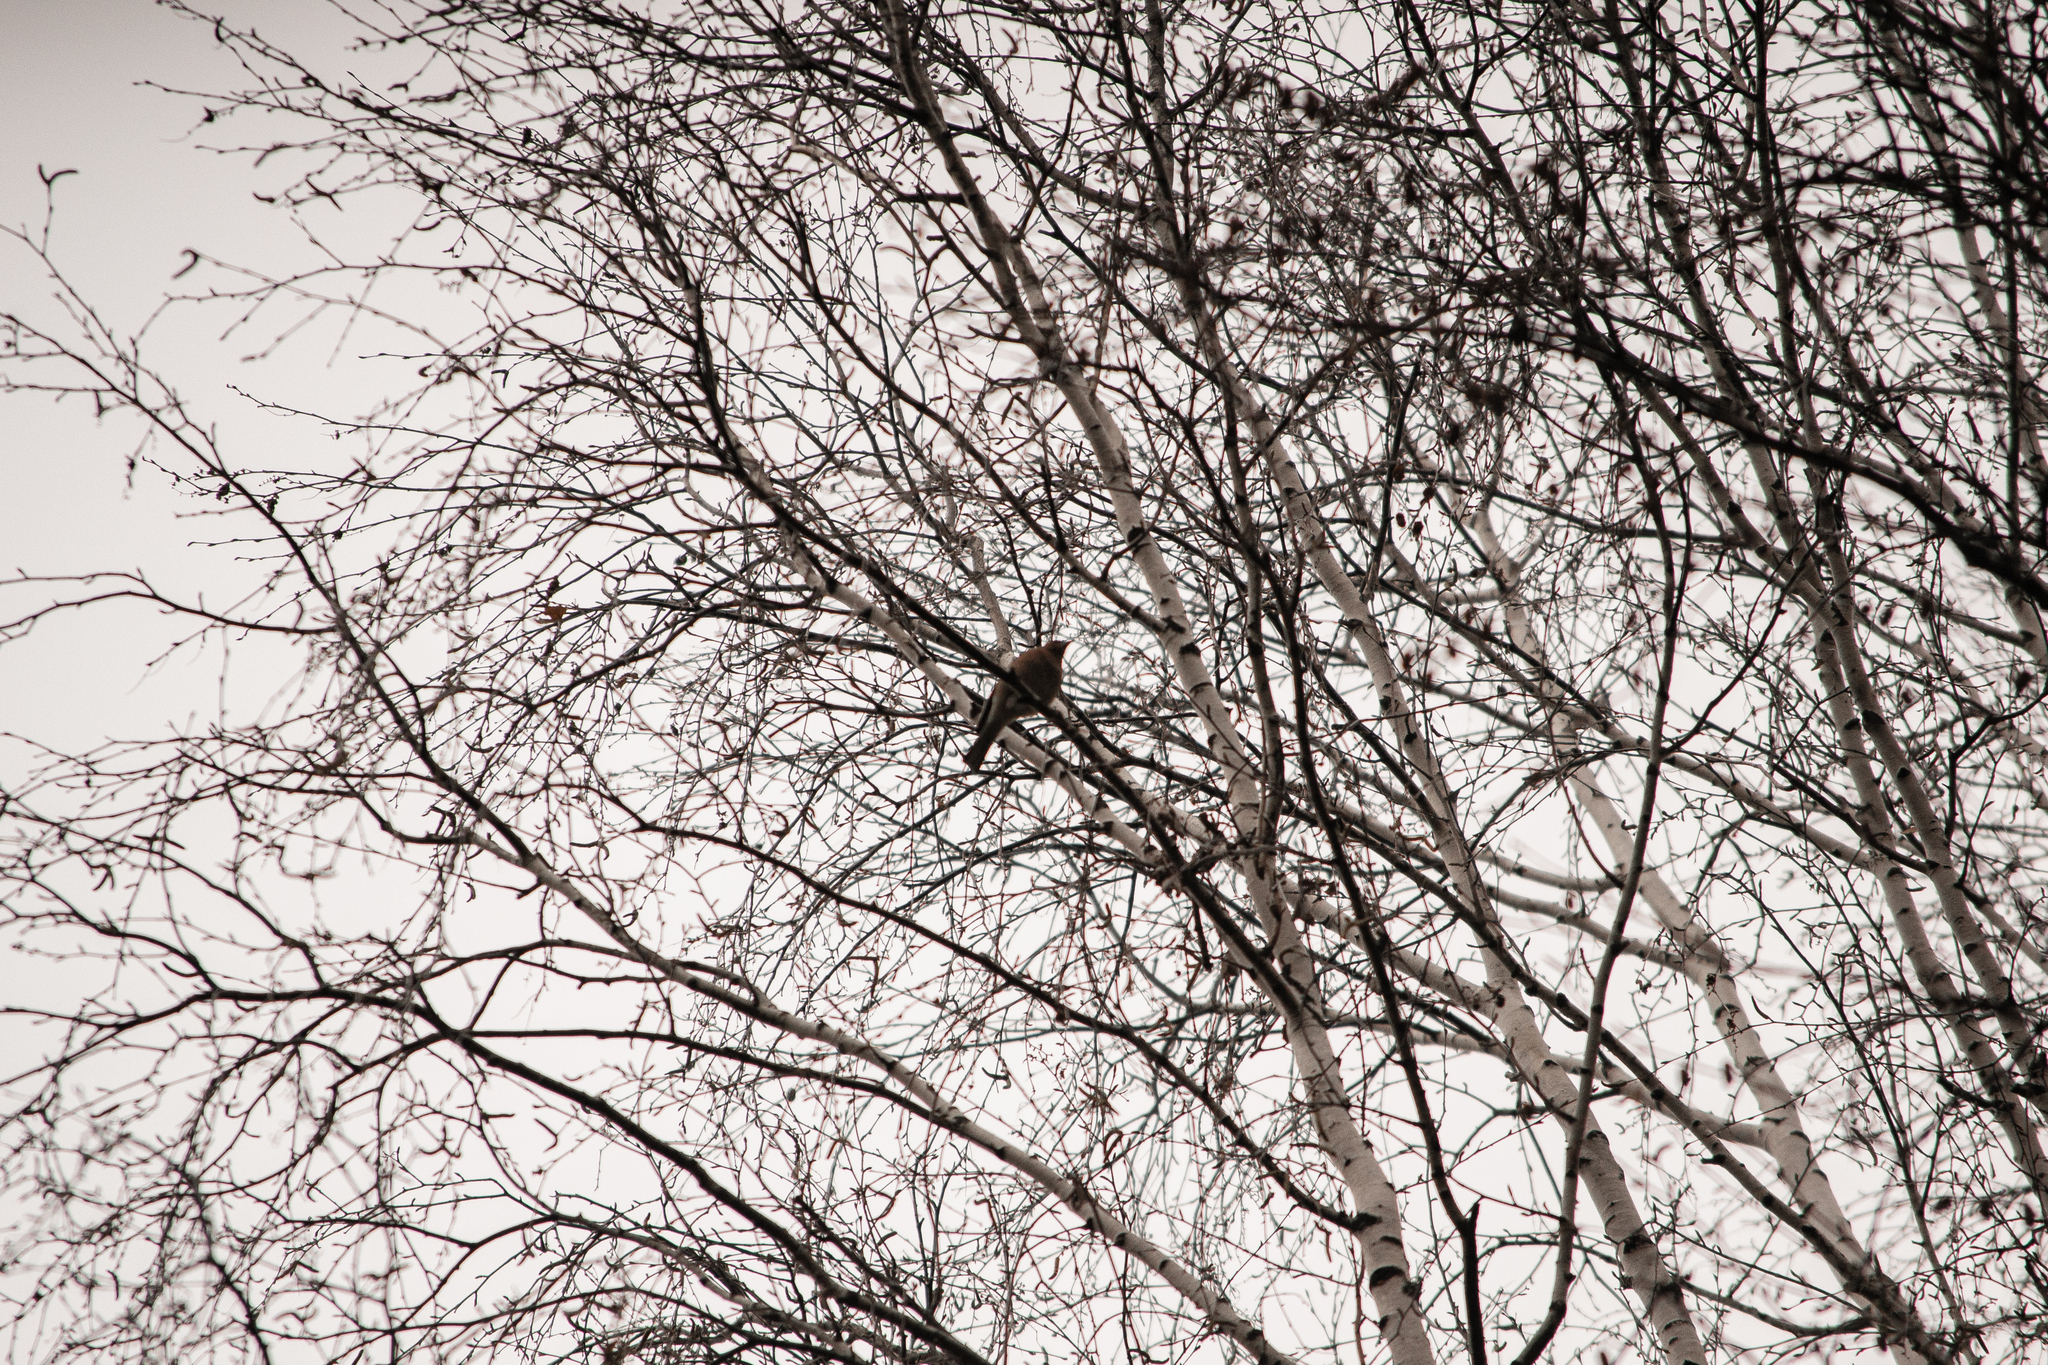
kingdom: Animalia
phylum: Chordata
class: Aves
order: Passeriformes
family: Fringillidae
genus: Fringilla
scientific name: Fringilla coelebs
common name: Common chaffinch
